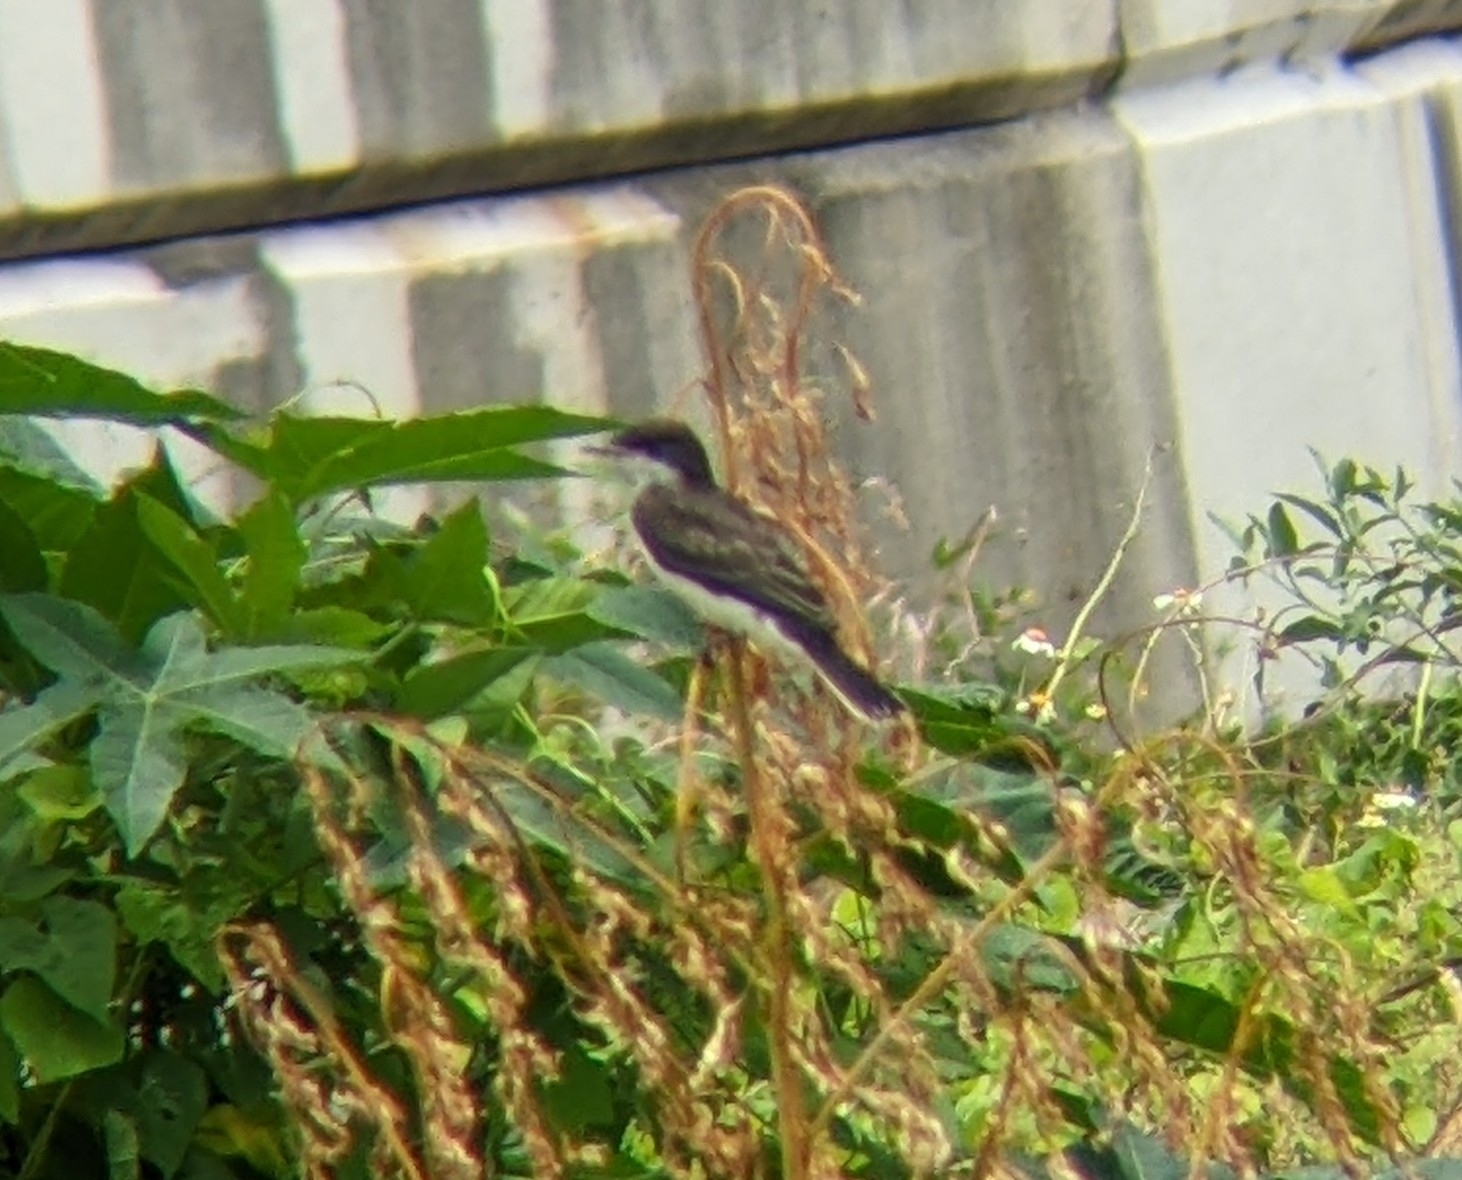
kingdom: Animalia
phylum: Chordata
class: Aves
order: Passeriformes
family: Tyrannidae
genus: Tyrannus
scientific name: Tyrannus tyrannus
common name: Eastern kingbird
